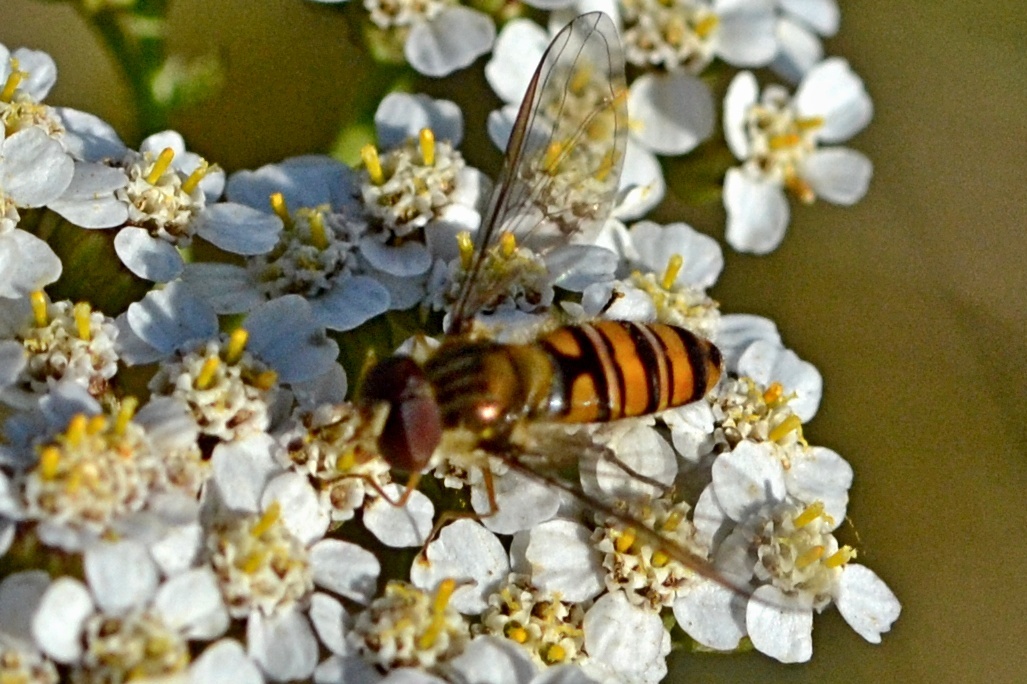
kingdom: Animalia
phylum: Arthropoda
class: Insecta
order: Diptera
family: Syrphidae
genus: Episyrphus
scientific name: Episyrphus balteatus
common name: Marmalade hoverfly
